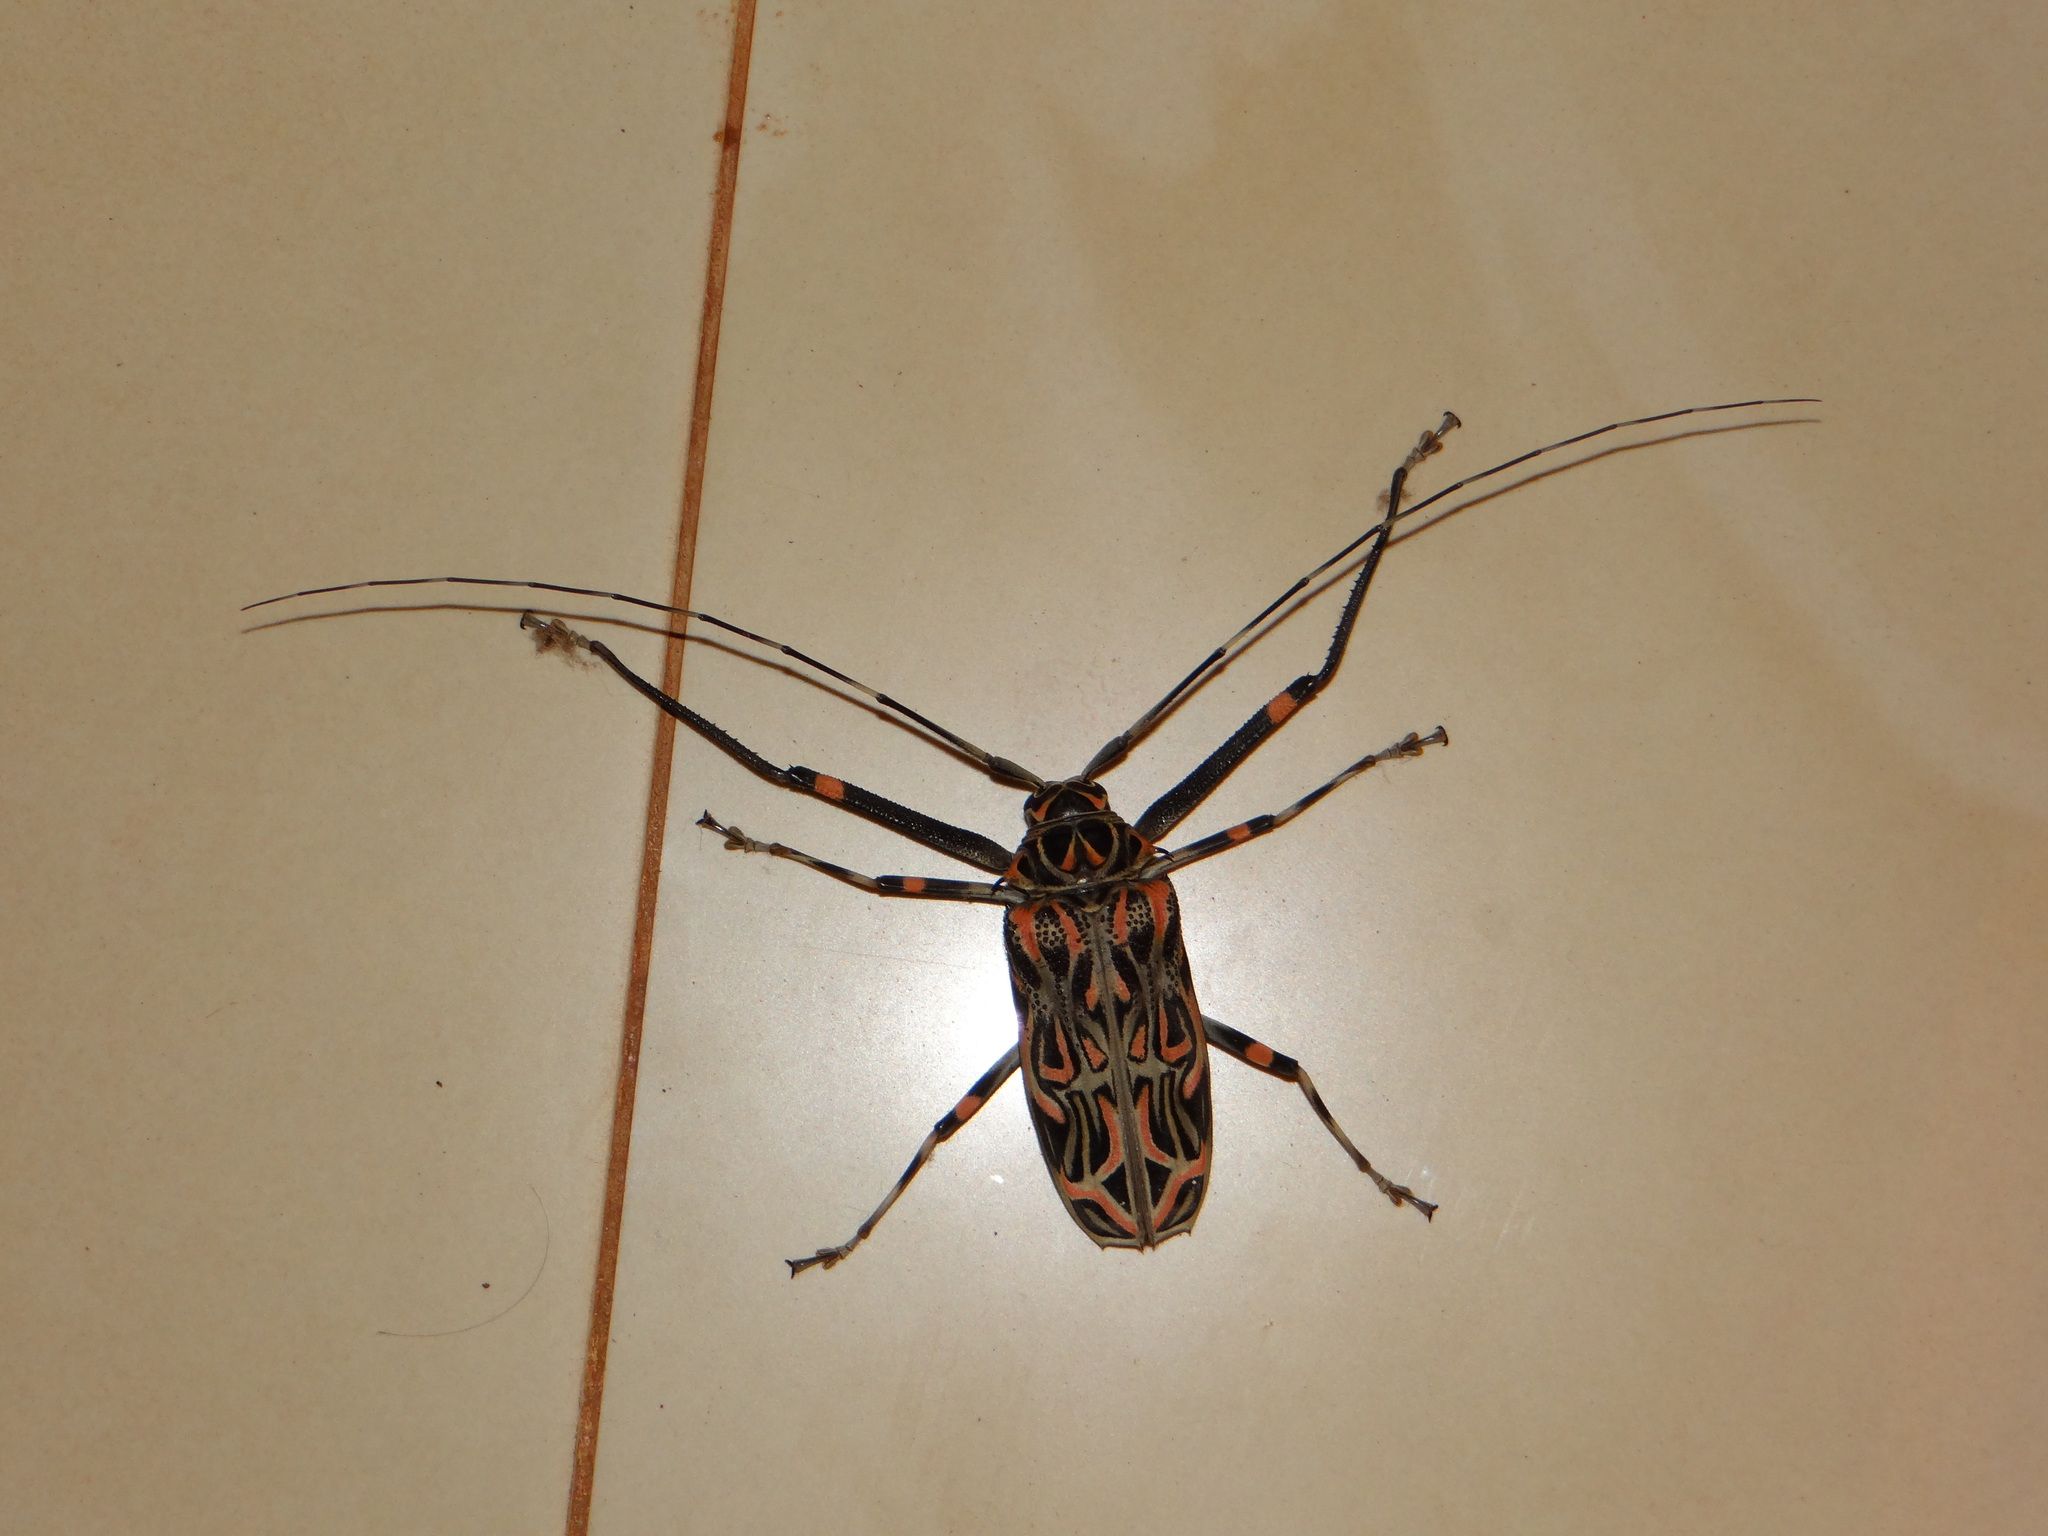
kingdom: Animalia
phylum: Arthropoda
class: Insecta
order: Coleoptera
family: Cerambycidae
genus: Acrocinus
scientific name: Acrocinus longimanus
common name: Arlequin
